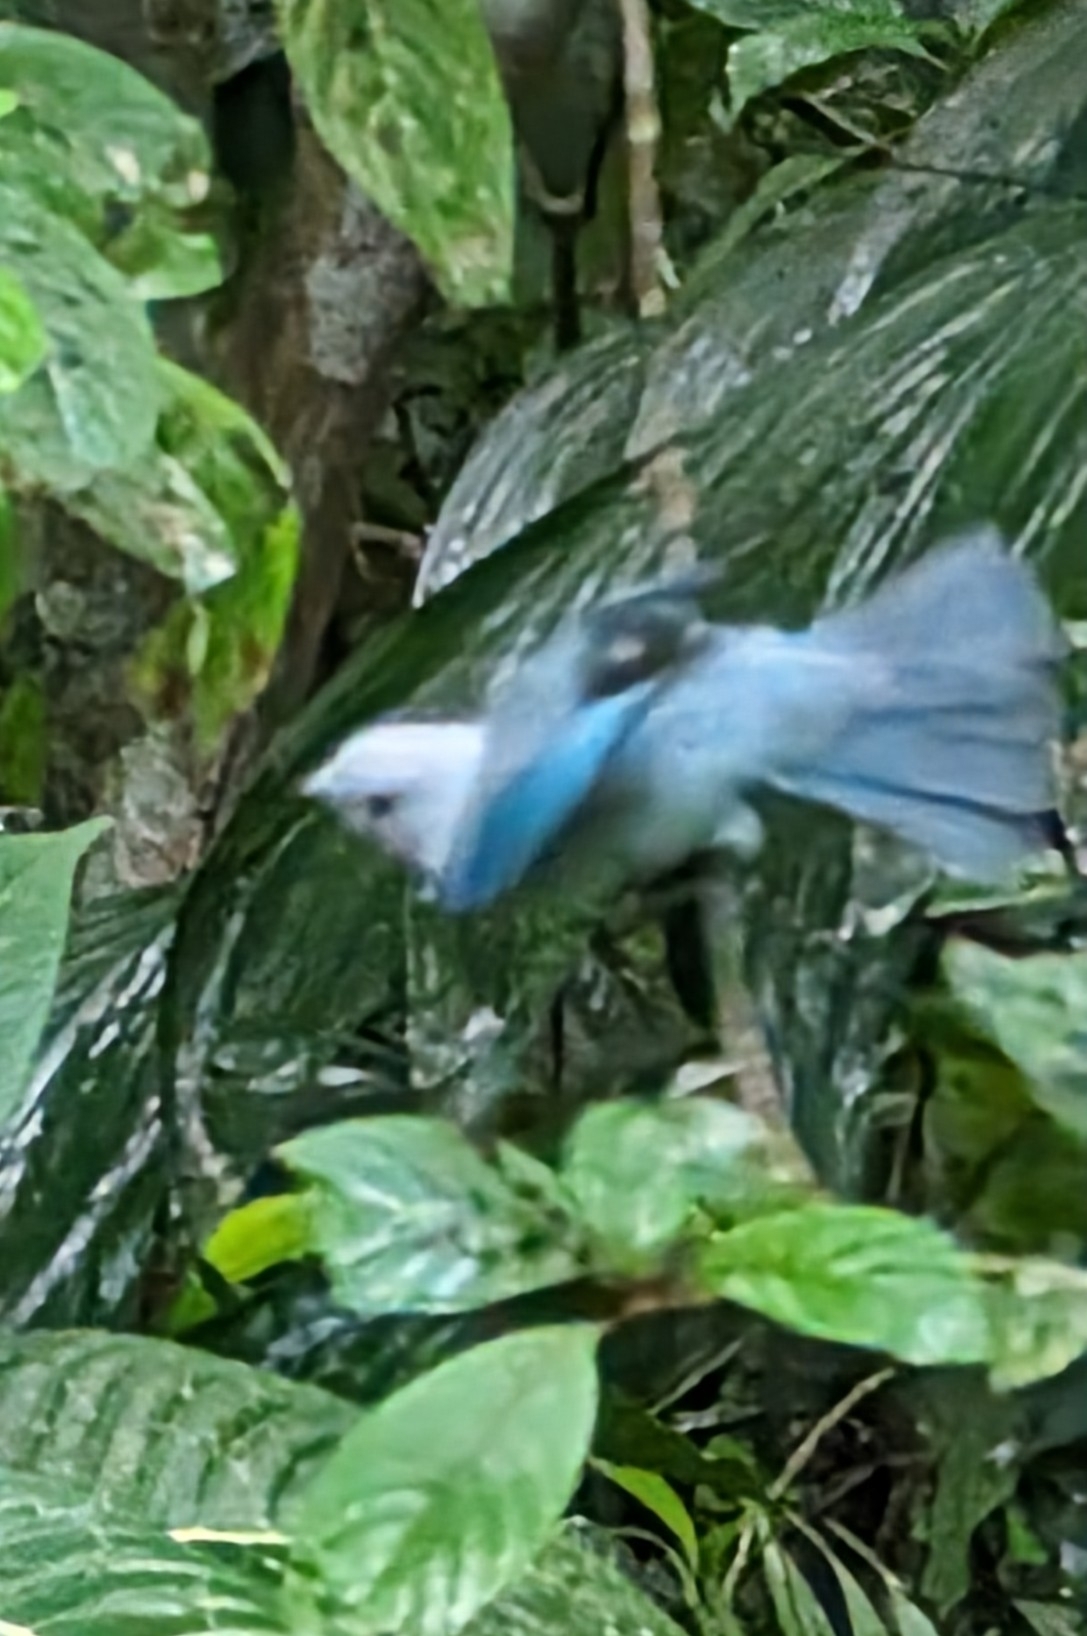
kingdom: Animalia
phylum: Chordata
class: Aves
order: Passeriformes
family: Thraupidae
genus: Thraupis
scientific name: Thraupis episcopus
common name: Blue-grey tanager
